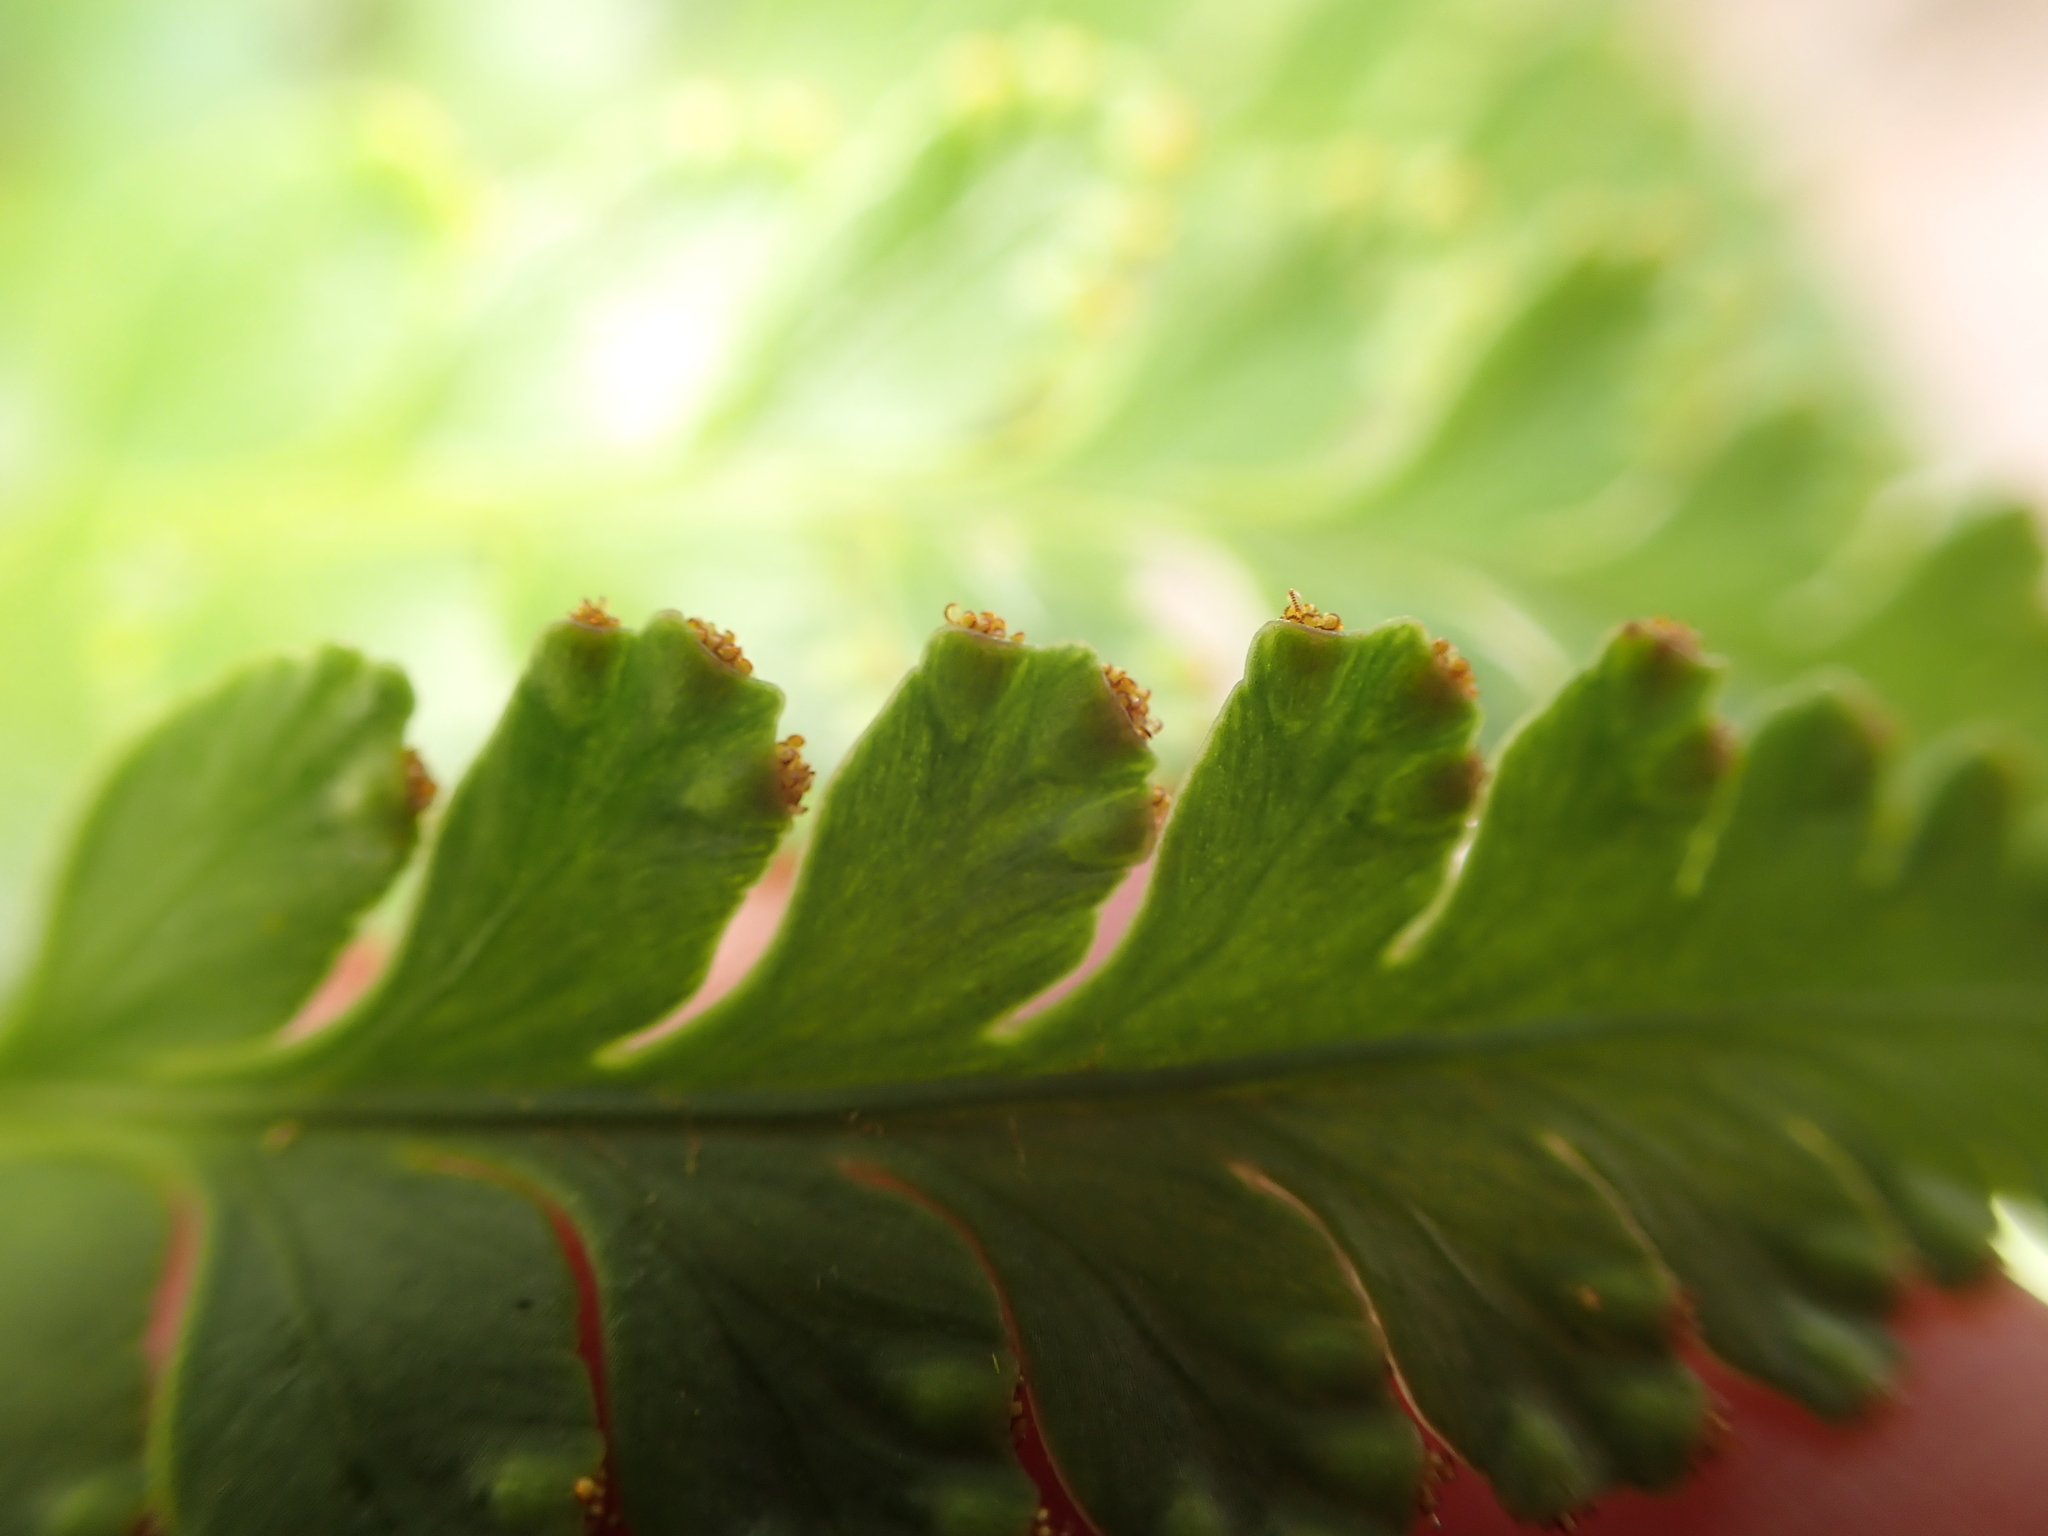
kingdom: Plantae
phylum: Tracheophyta
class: Polypodiopsida
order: Polypodiales
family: Davalliaceae
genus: Davallia
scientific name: Davallia solida
